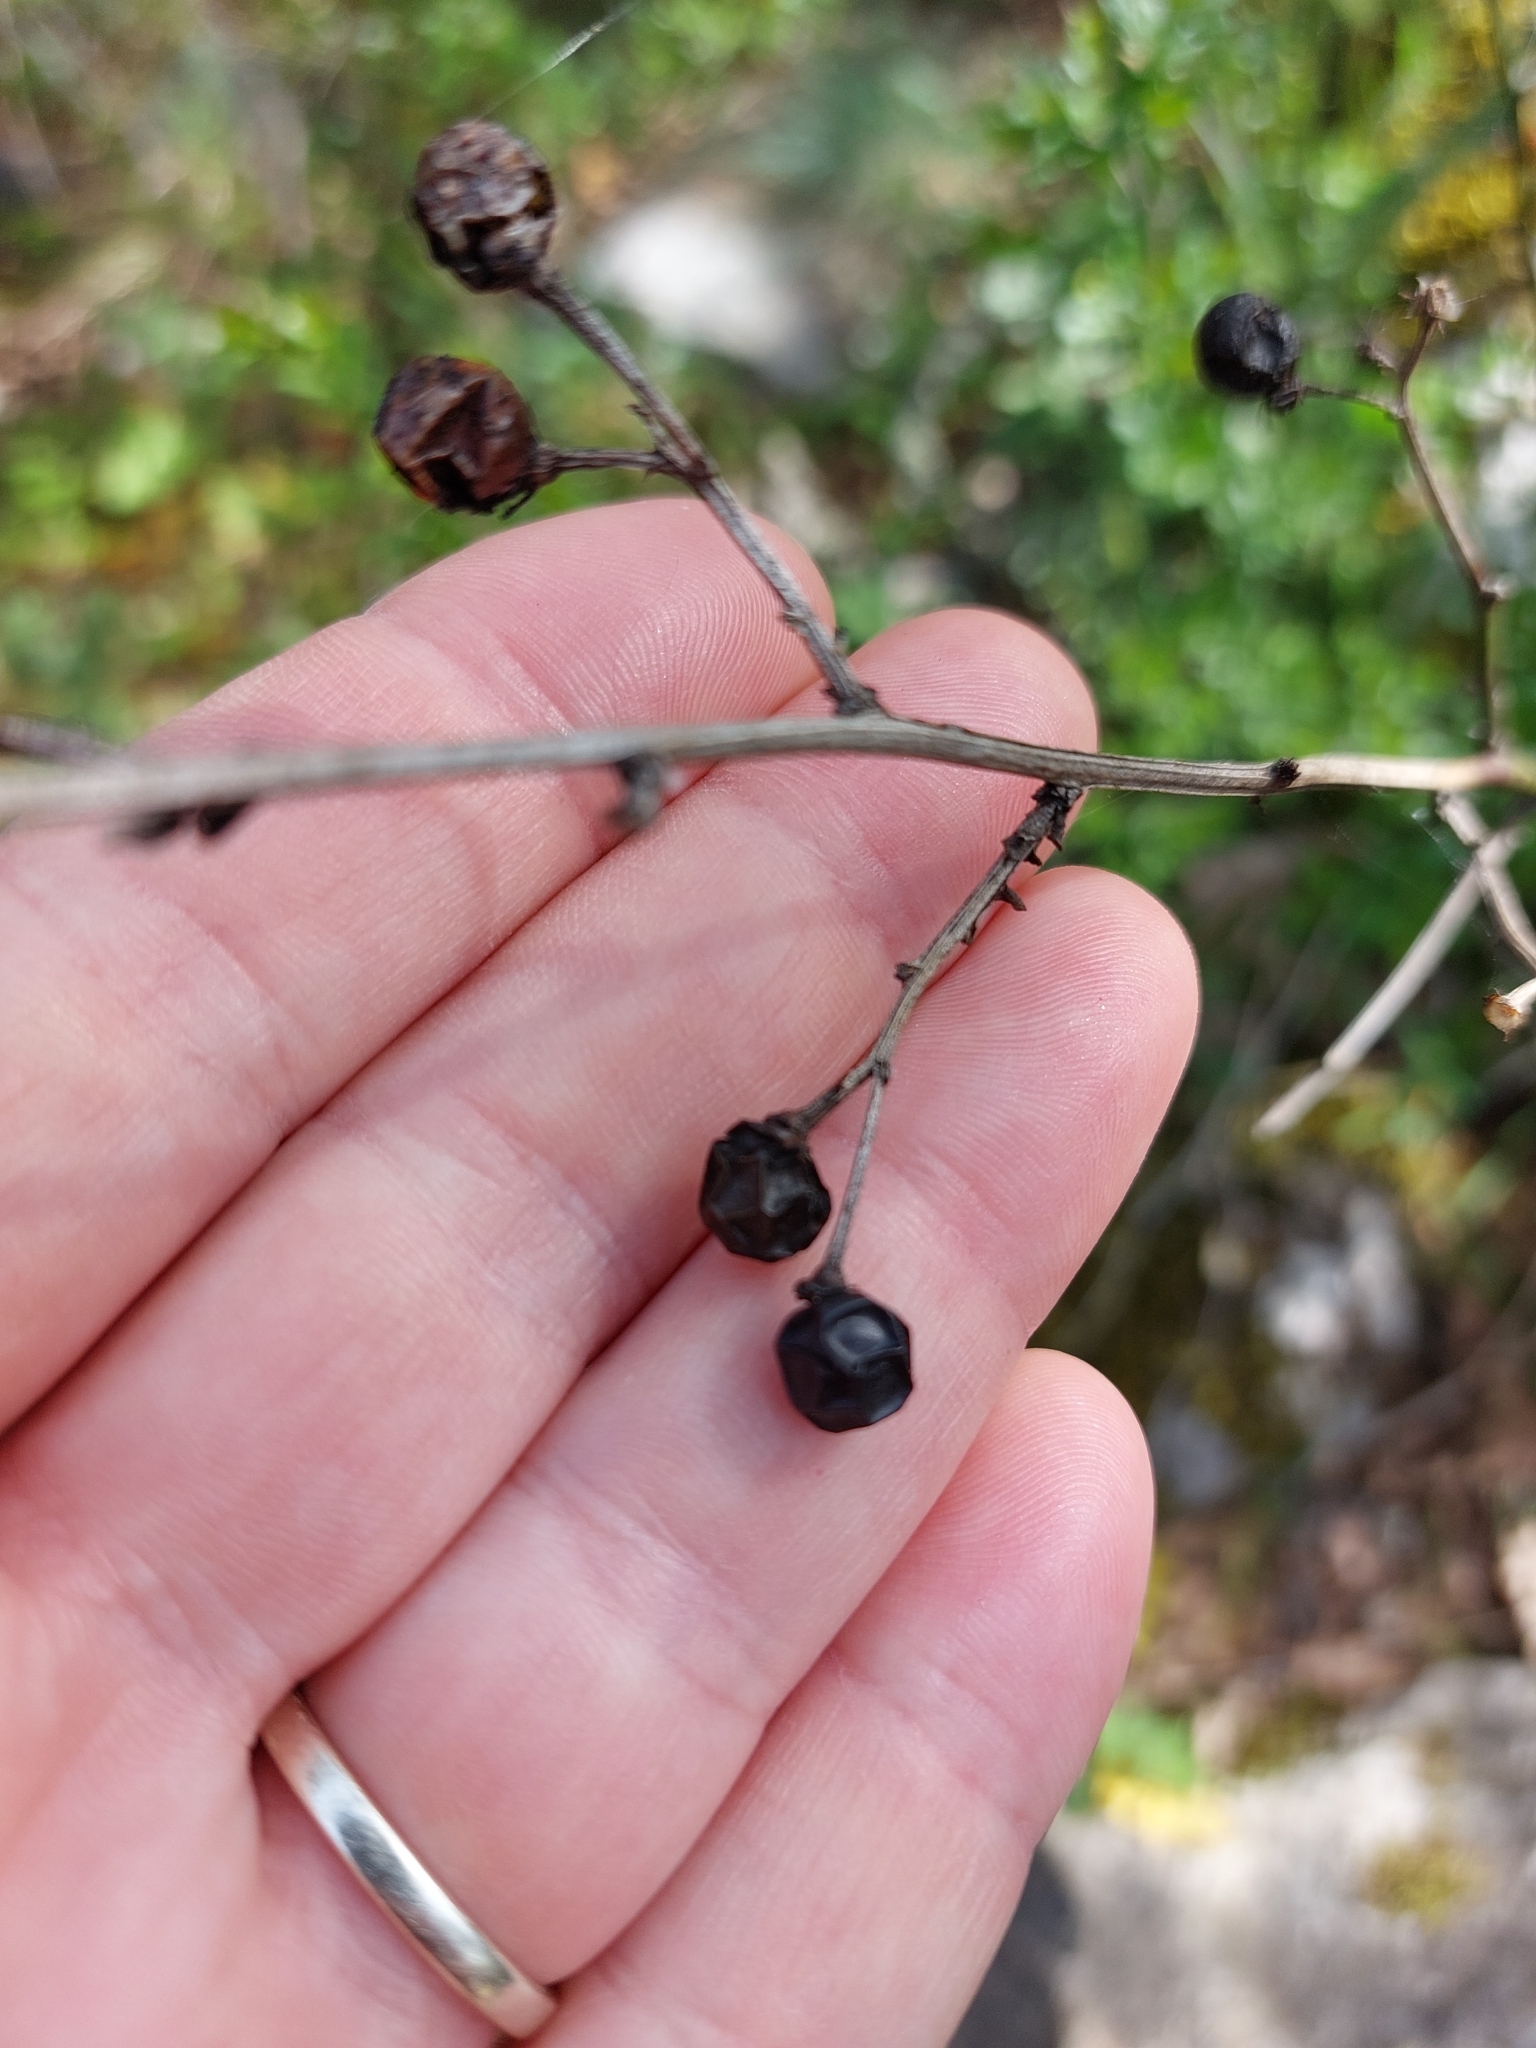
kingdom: Plantae
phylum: Tracheophyta
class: Magnoliopsida
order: Lamiales
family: Oleaceae
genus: Chrysojasminum
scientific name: Chrysojasminum fruticans
